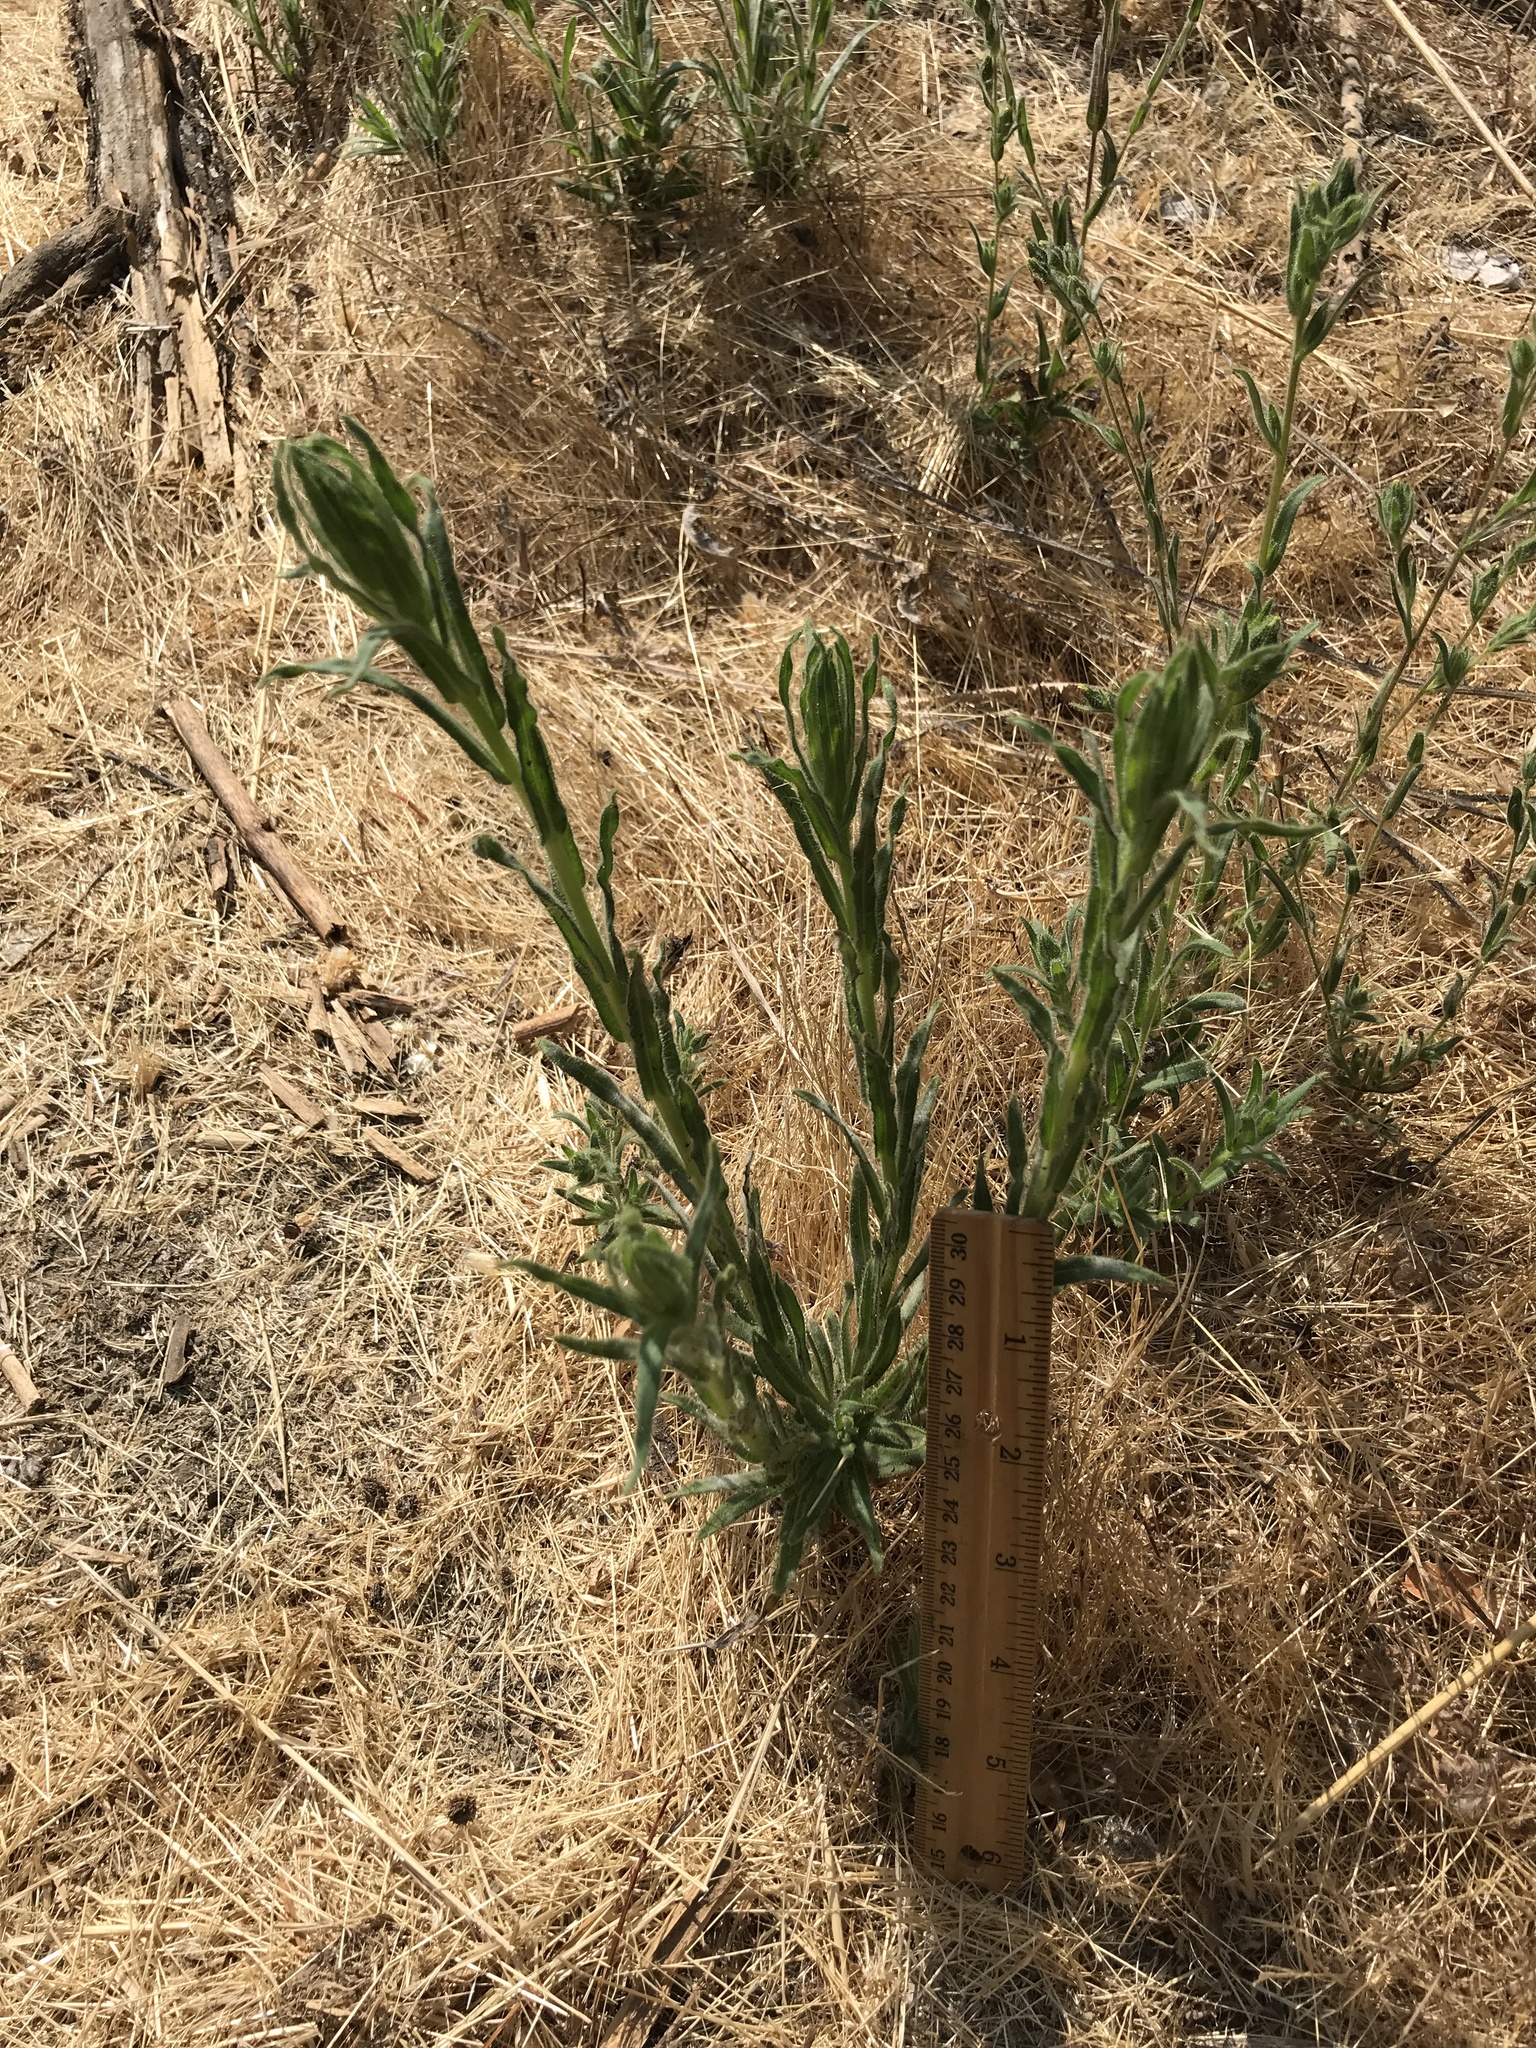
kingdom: Plantae
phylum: Tracheophyta
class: Magnoliopsida
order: Asterales
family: Asteraceae
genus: Madia
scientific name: Madia sativa
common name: Coast tarweed
